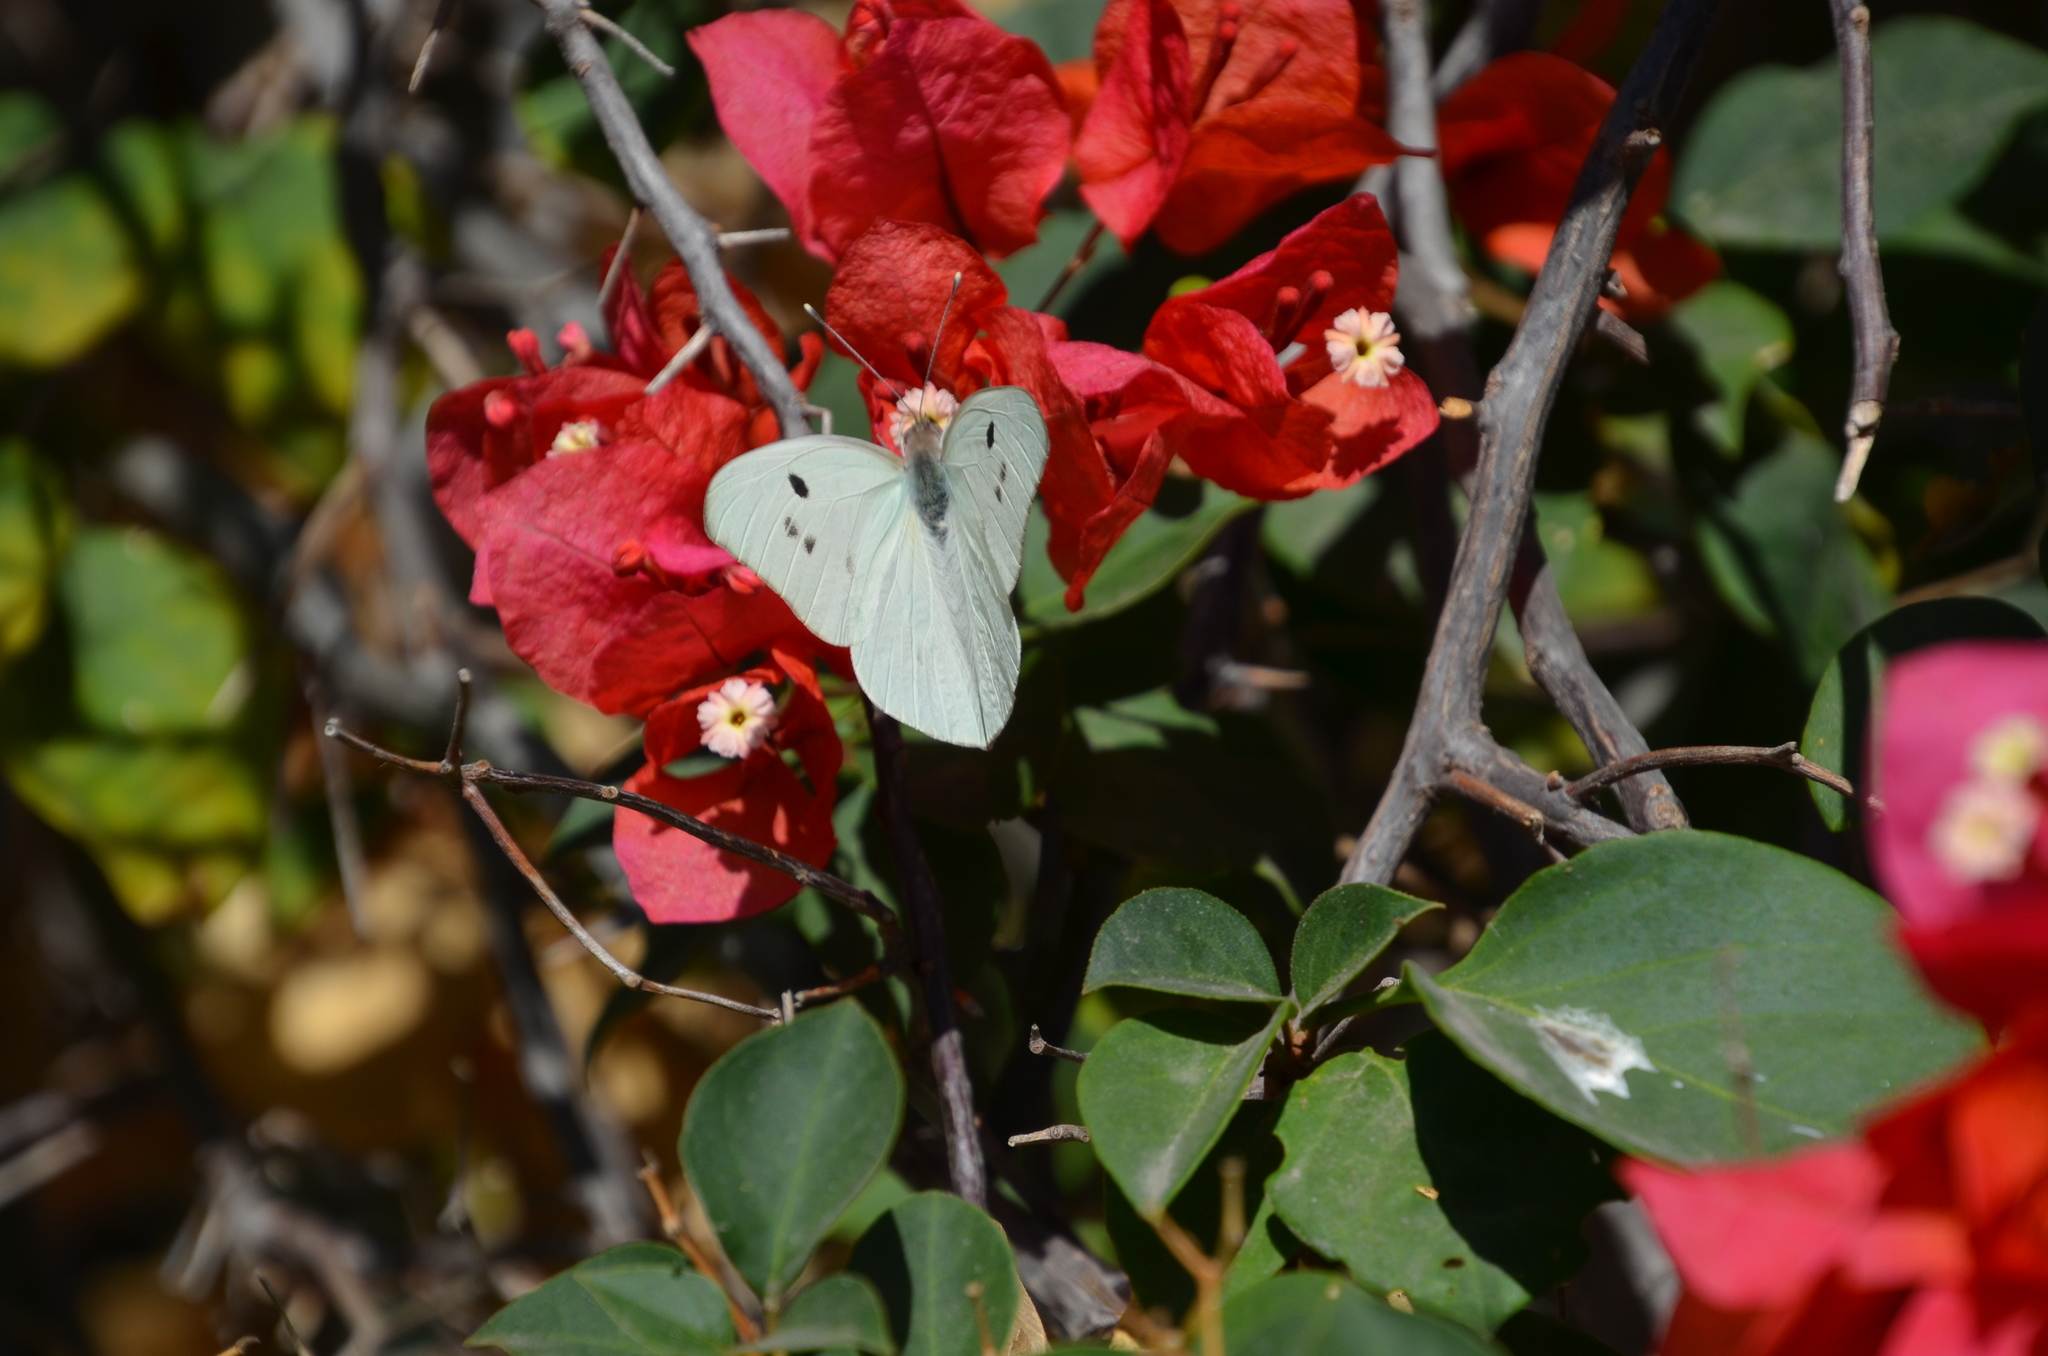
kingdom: Animalia
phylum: Arthropoda
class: Insecta
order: Lepidoptera
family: Pieridae
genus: Ganyra
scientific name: Ganyra josephina
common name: Giant white
